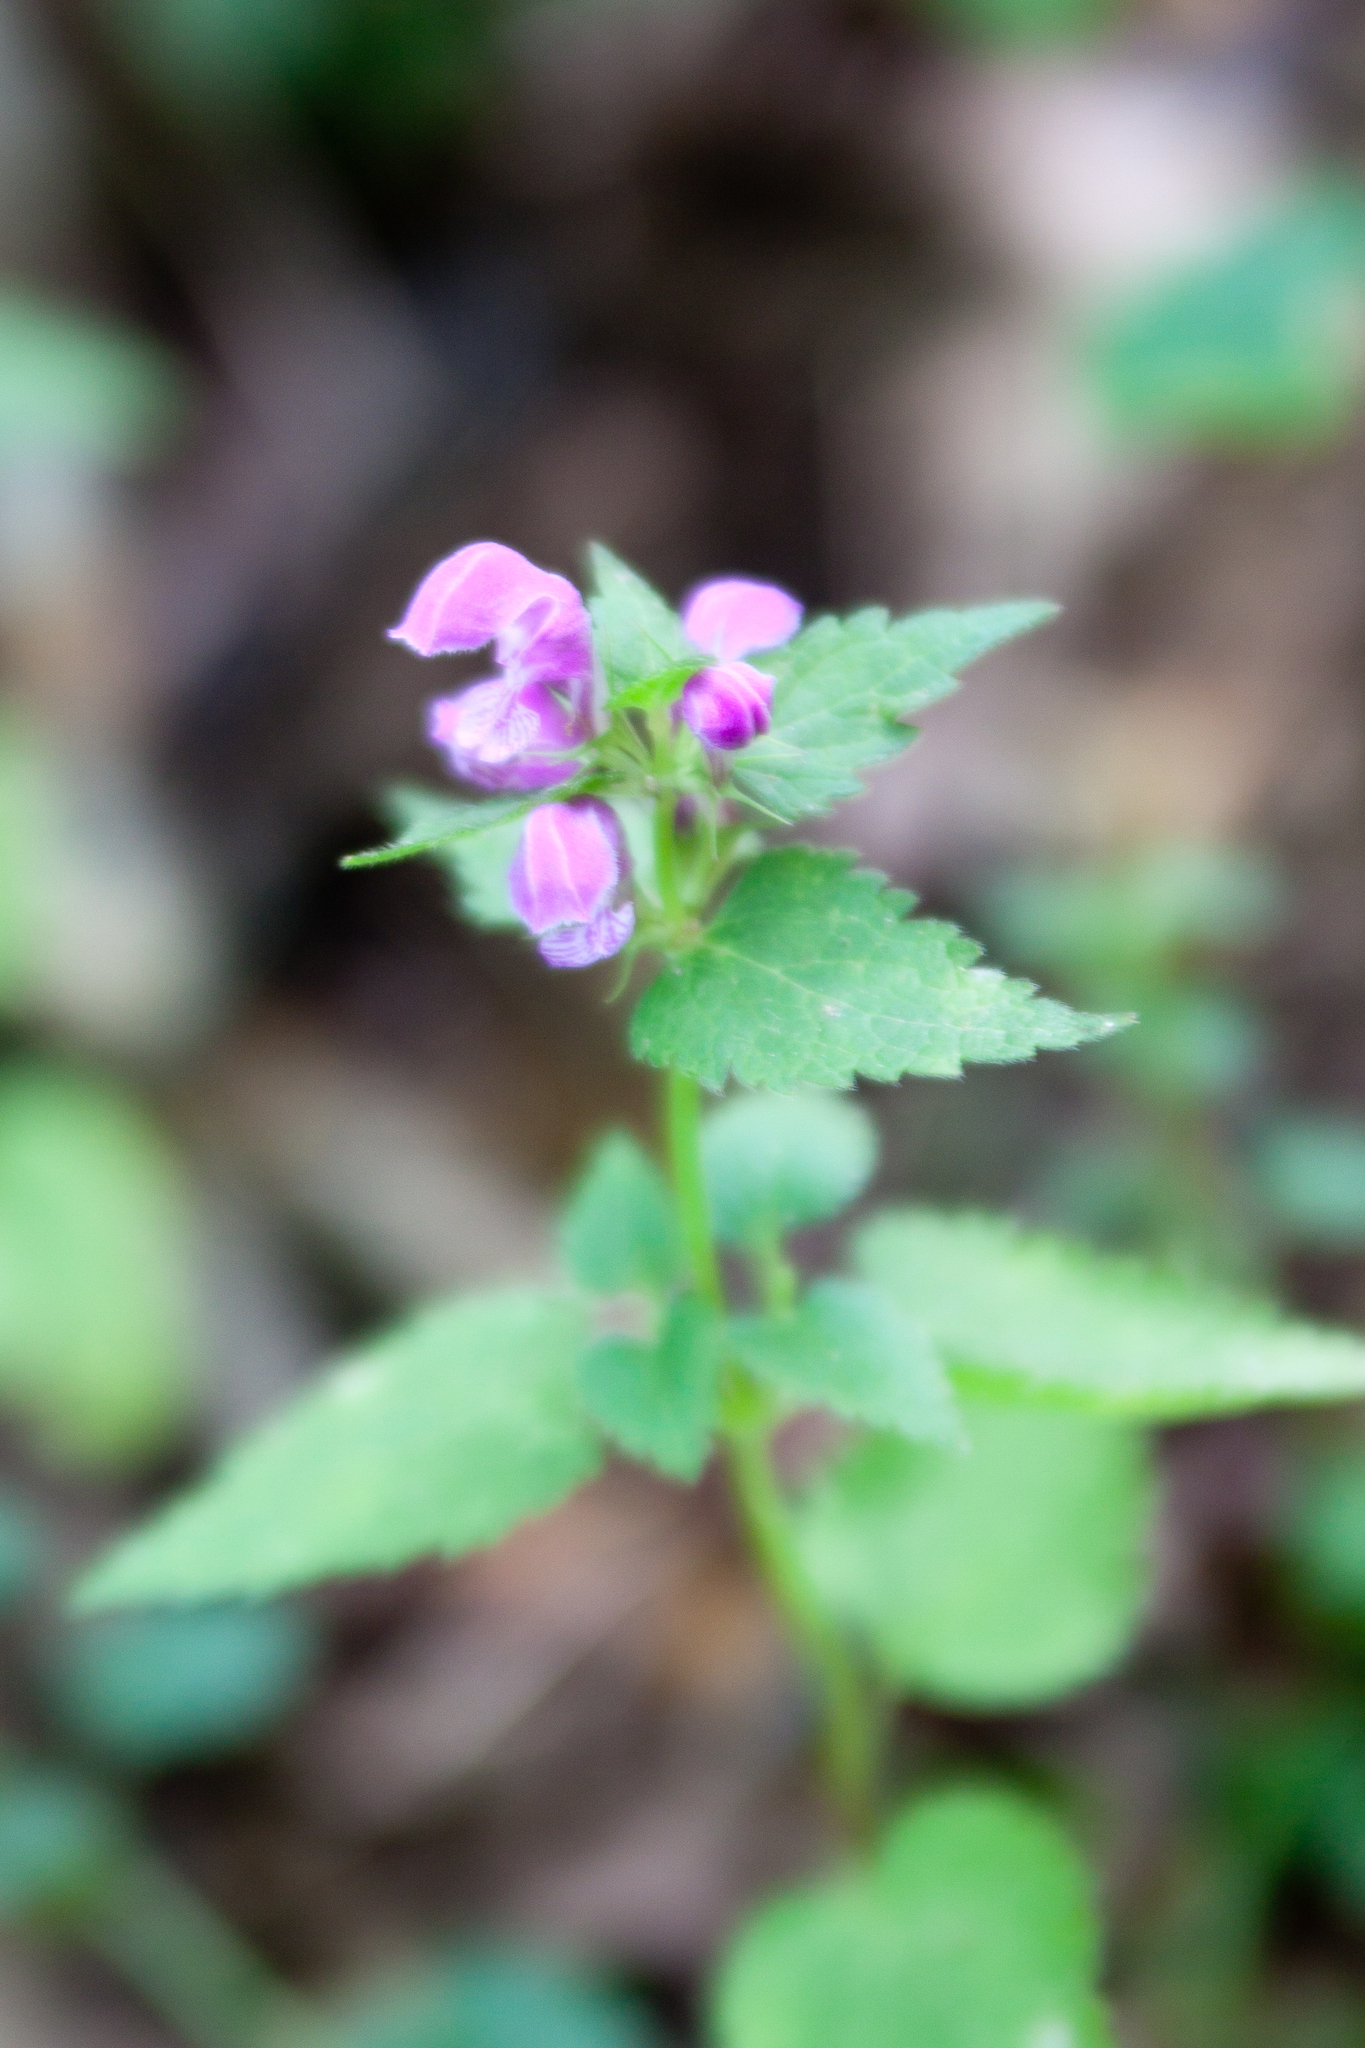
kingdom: Plantae
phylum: Tracheophyta
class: Magnoliopsida
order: Lamiales
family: Lamiaceae
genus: Lamium
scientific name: Lamium maculatum
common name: Spotted dead-nettle
